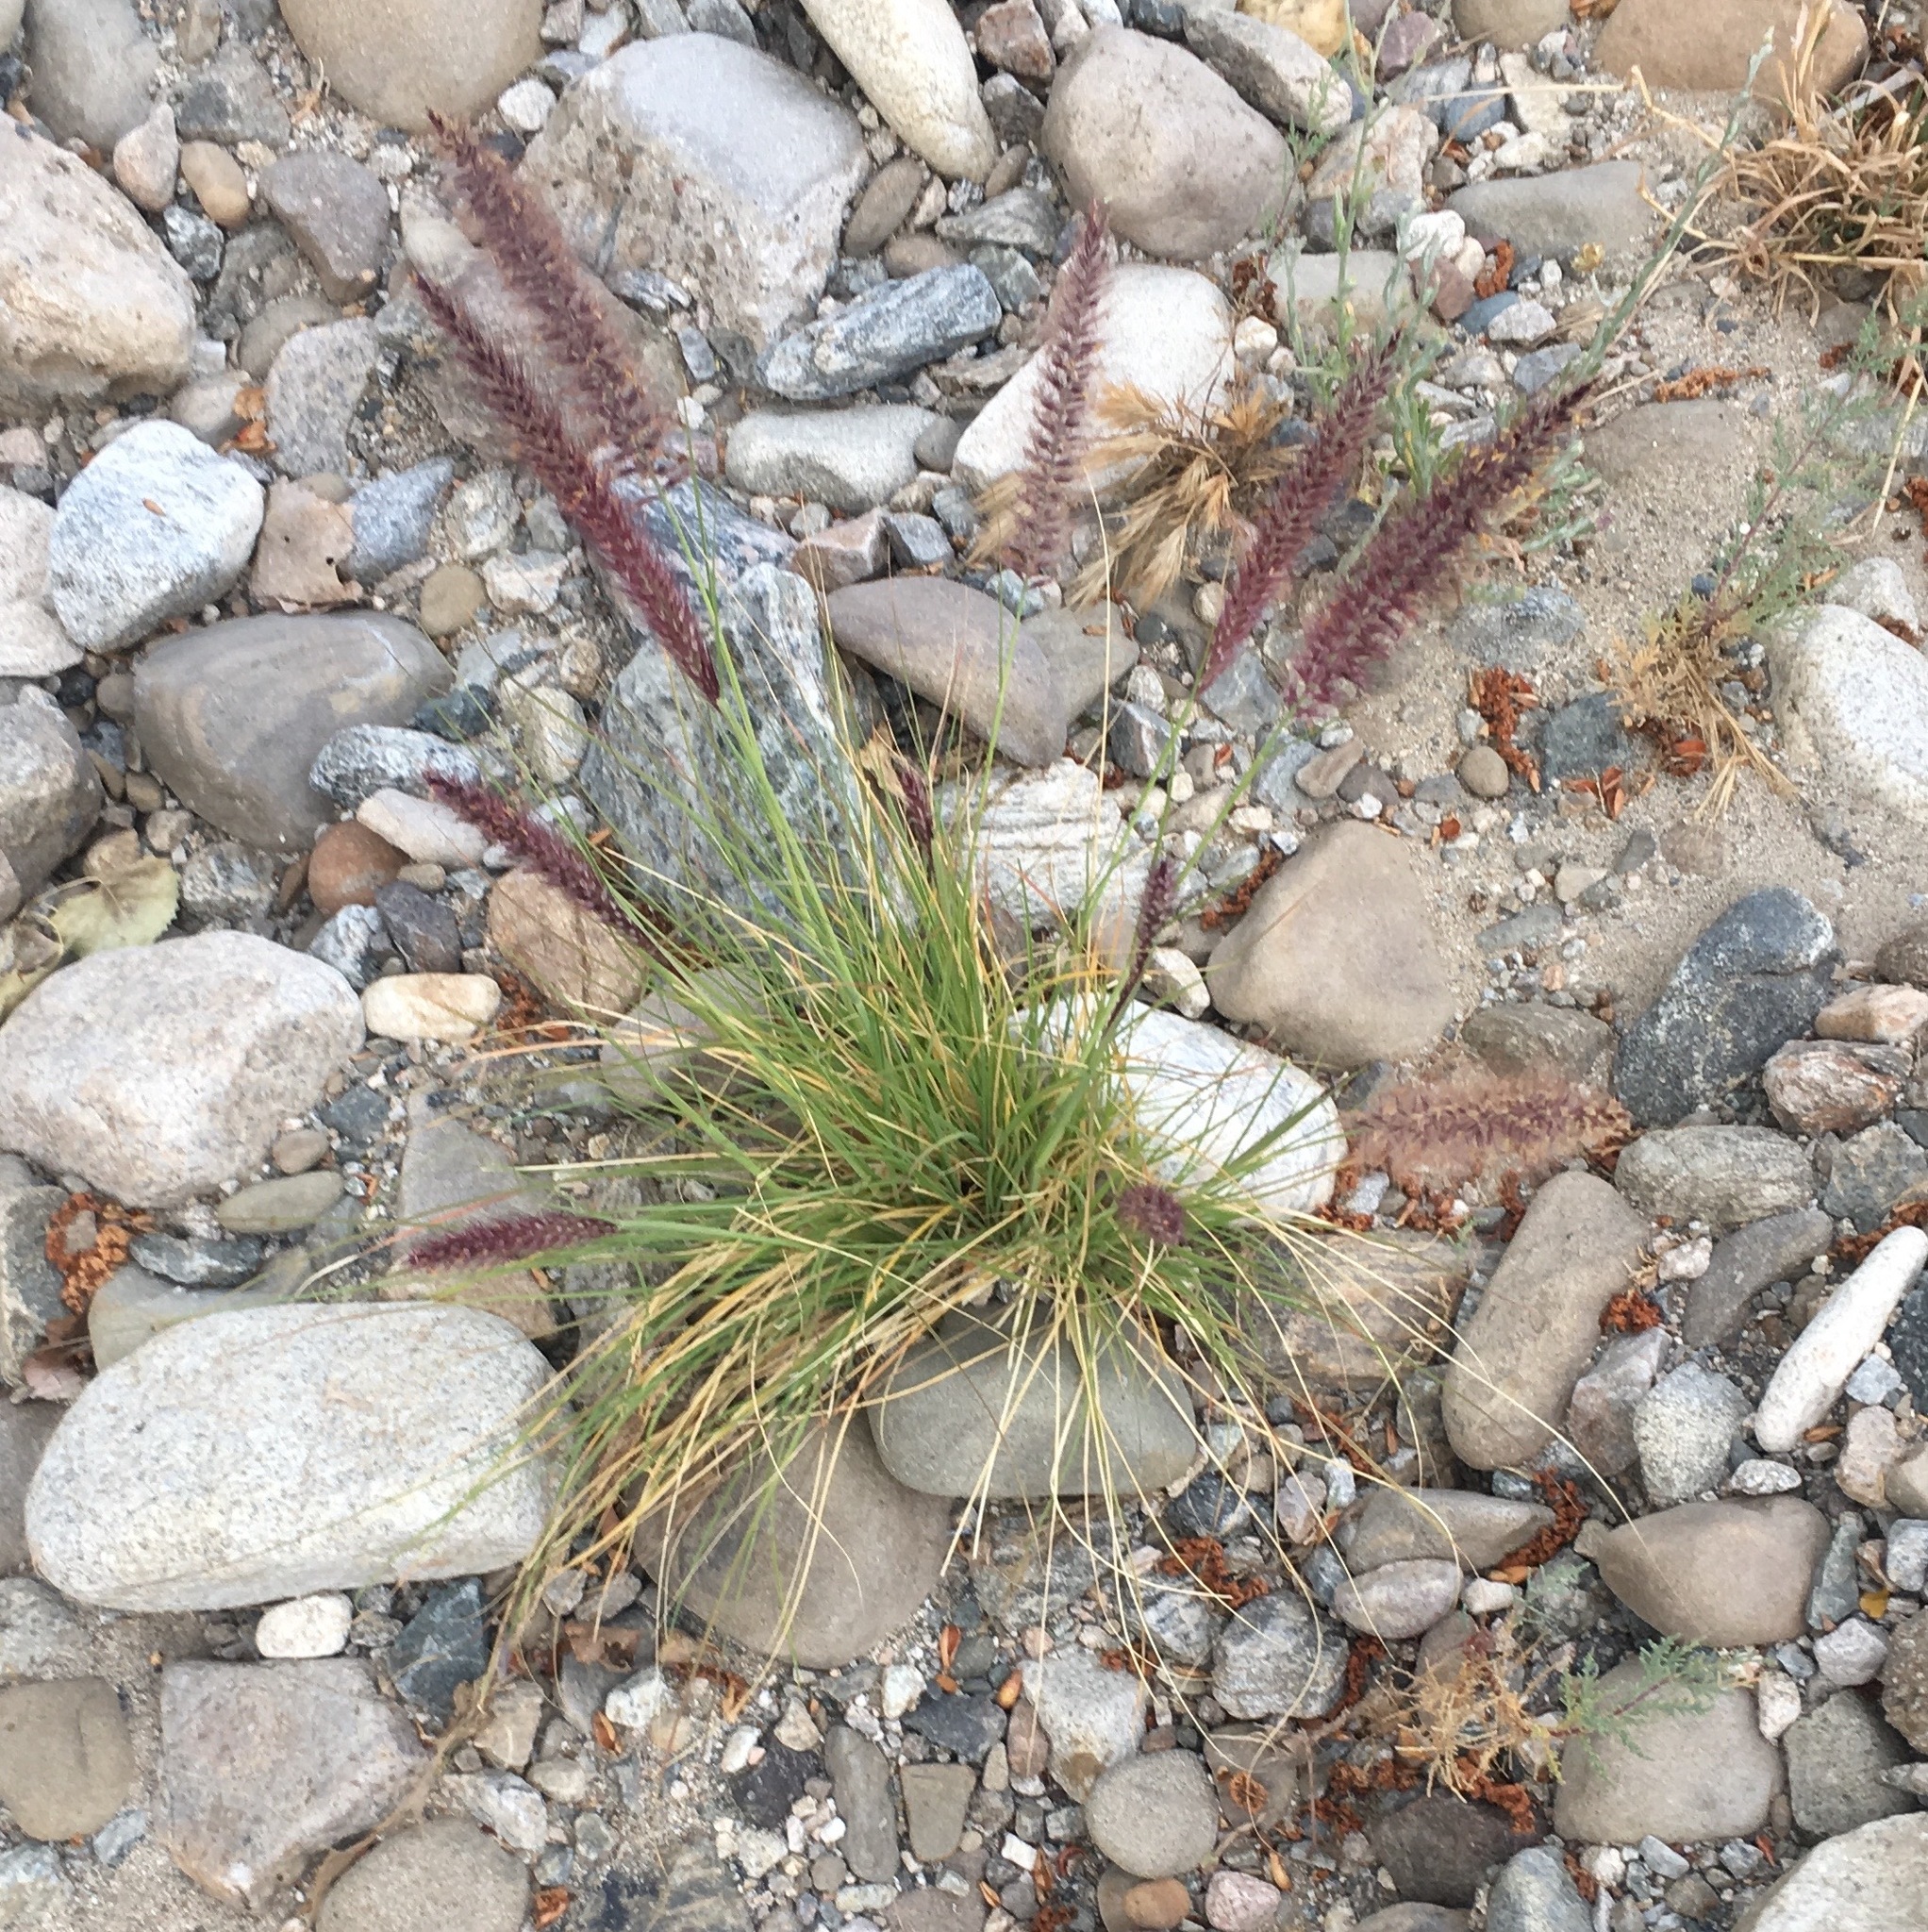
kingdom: Plantae
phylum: Tracheophyta
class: Liliopsida
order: Poales
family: Poaceae
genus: Cenchrus
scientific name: Cenchrus setaceus
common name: Crimson fountaingrass
